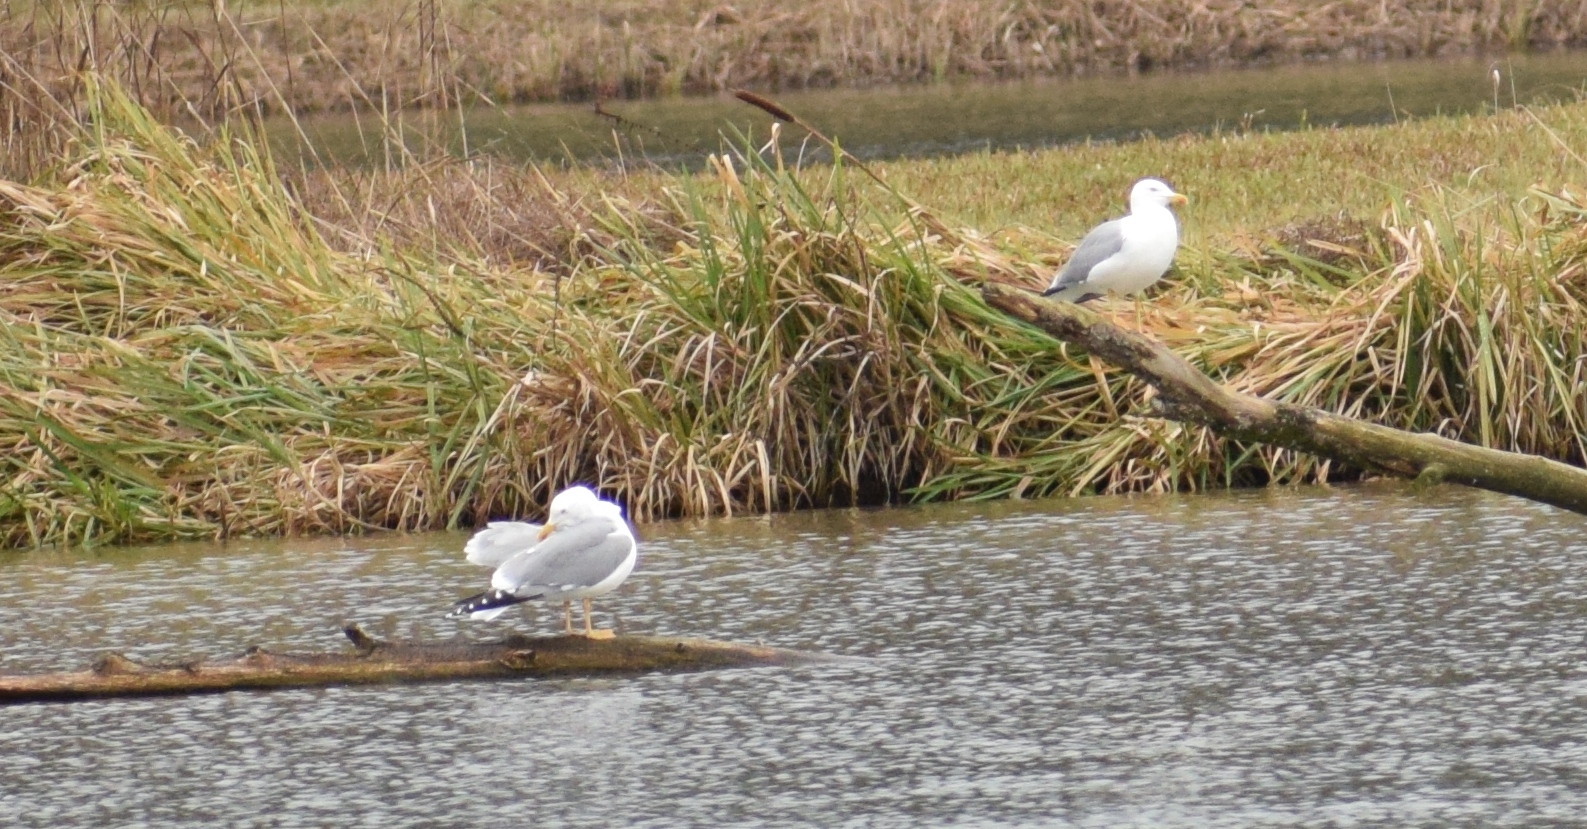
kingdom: Animalia
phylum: Chordata
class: Aves
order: Charadriiformes
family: Laridae
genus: Larus
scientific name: Larus michahellis
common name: Yellow-legged gull
